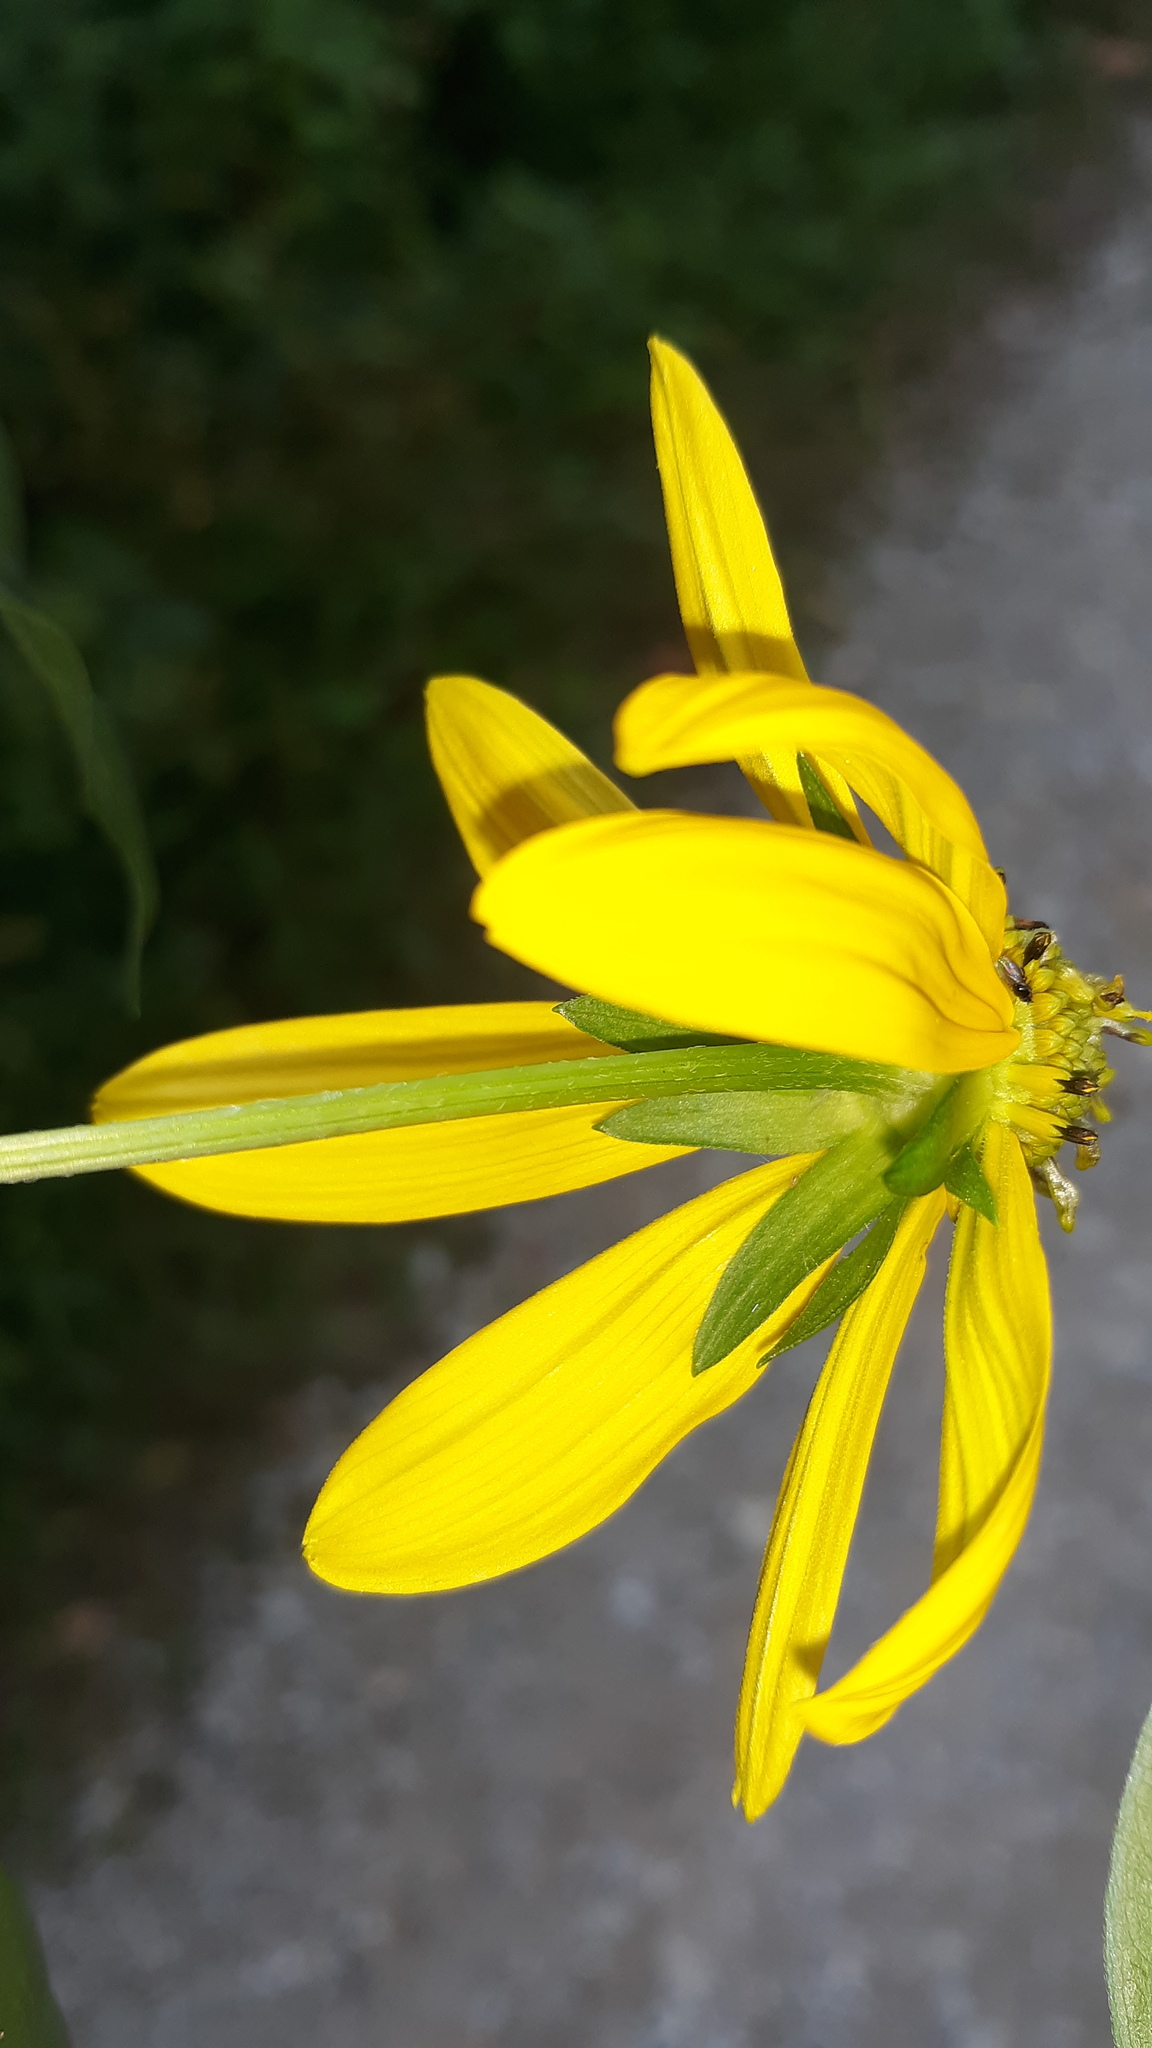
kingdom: Plantae
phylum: Tracheophyta
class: Magnoliopsida
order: Asterales
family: Asteraceae
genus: Rudbeckia
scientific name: Rudbeckia laciniata
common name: Coneflower
